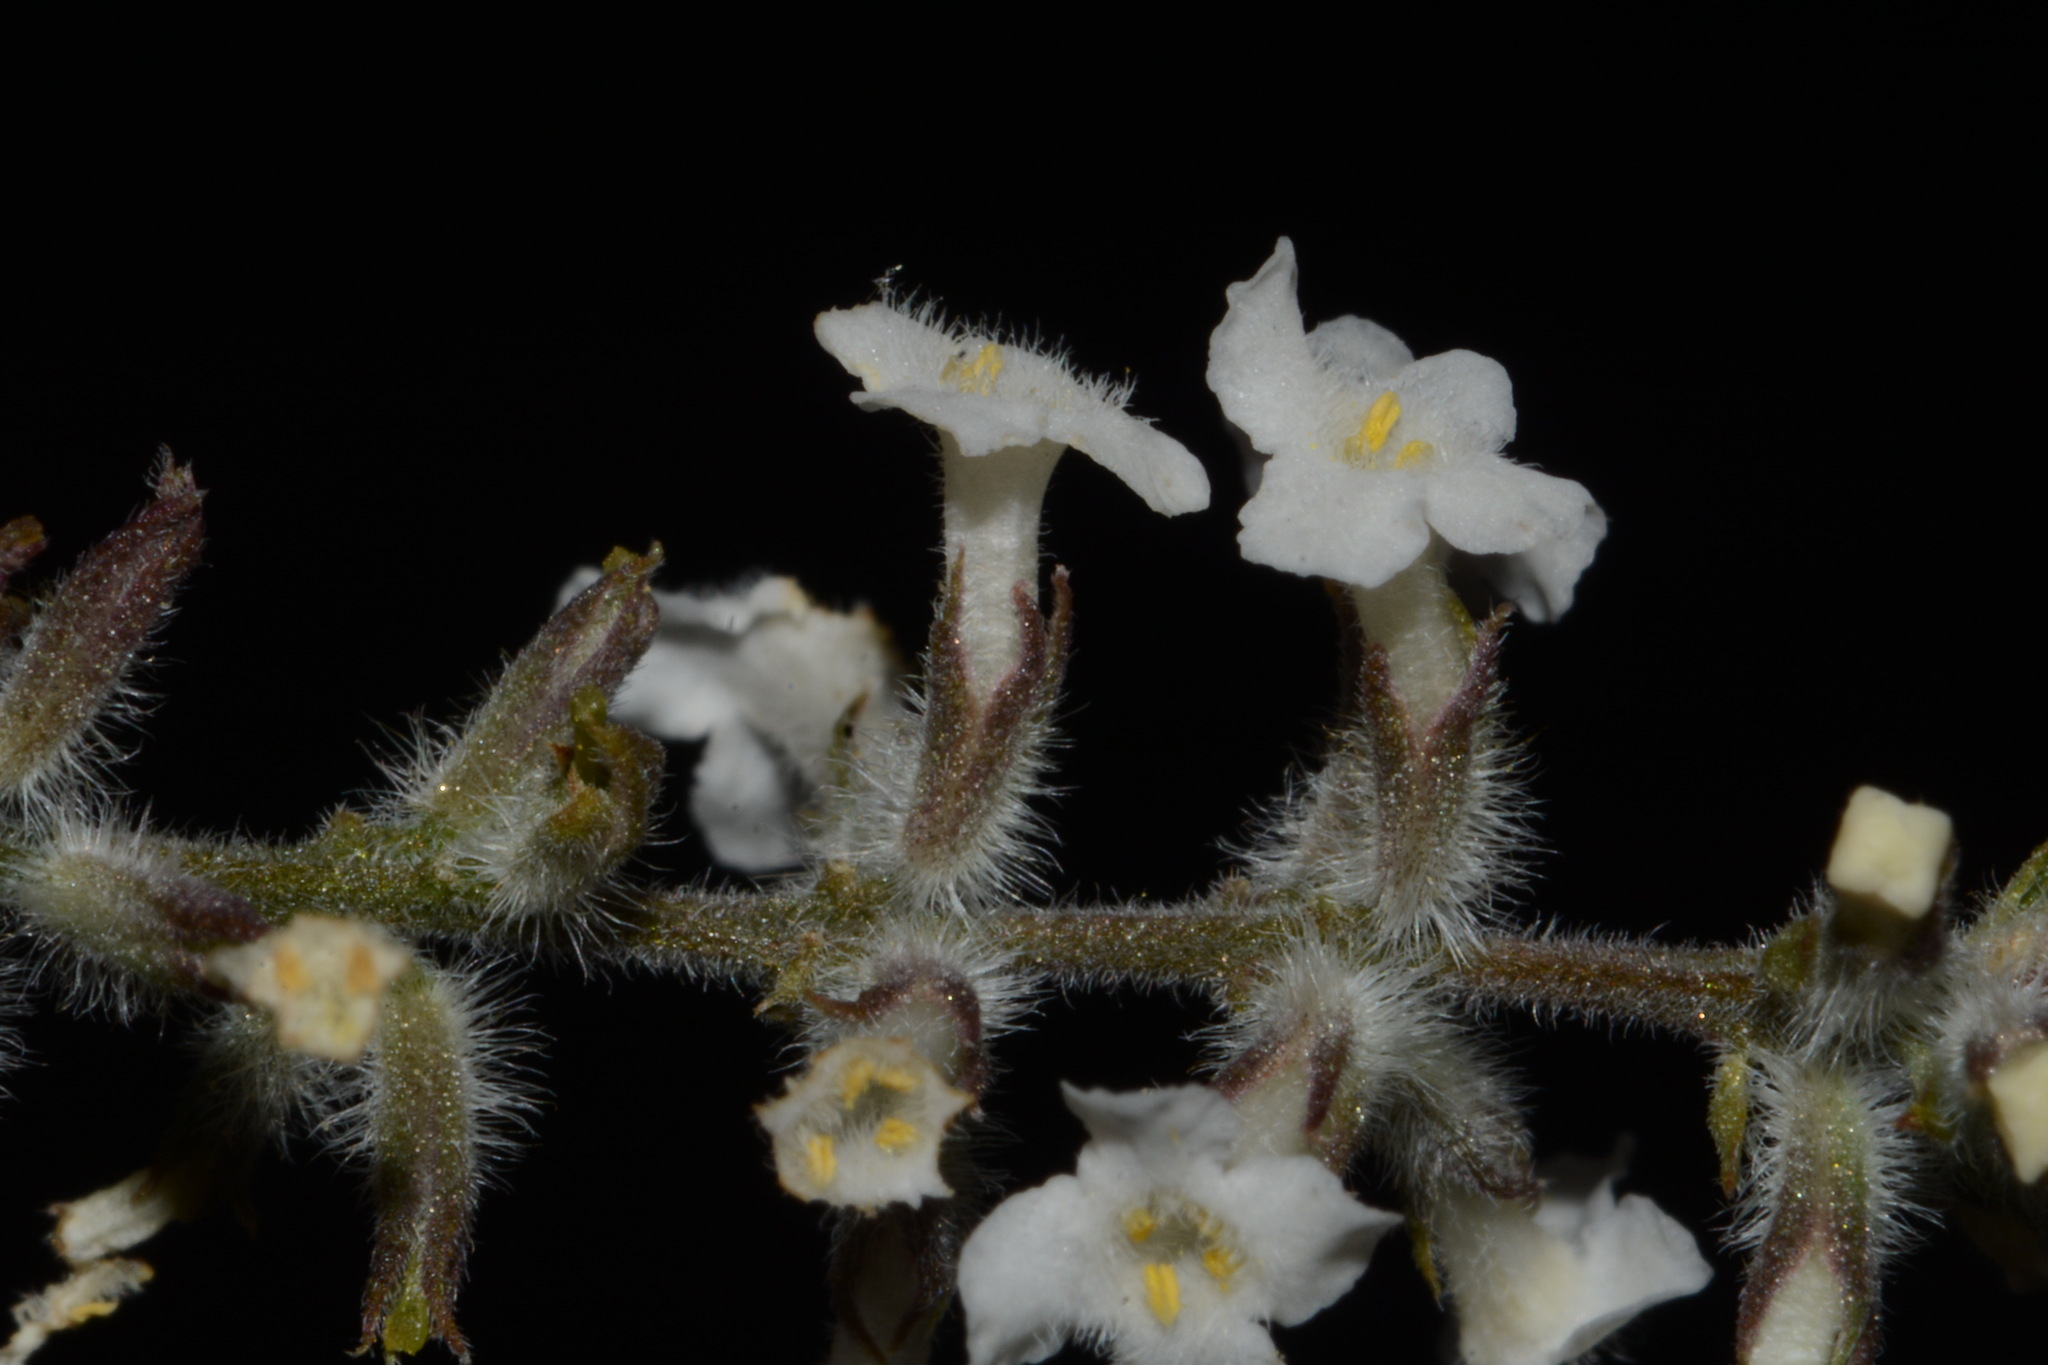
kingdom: Plantae
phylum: Tracheophyta
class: Magnoliopsida
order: Lamiales
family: Verbenaceae
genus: Aloysia
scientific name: Aloysia gratissima
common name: Common bee-brush
